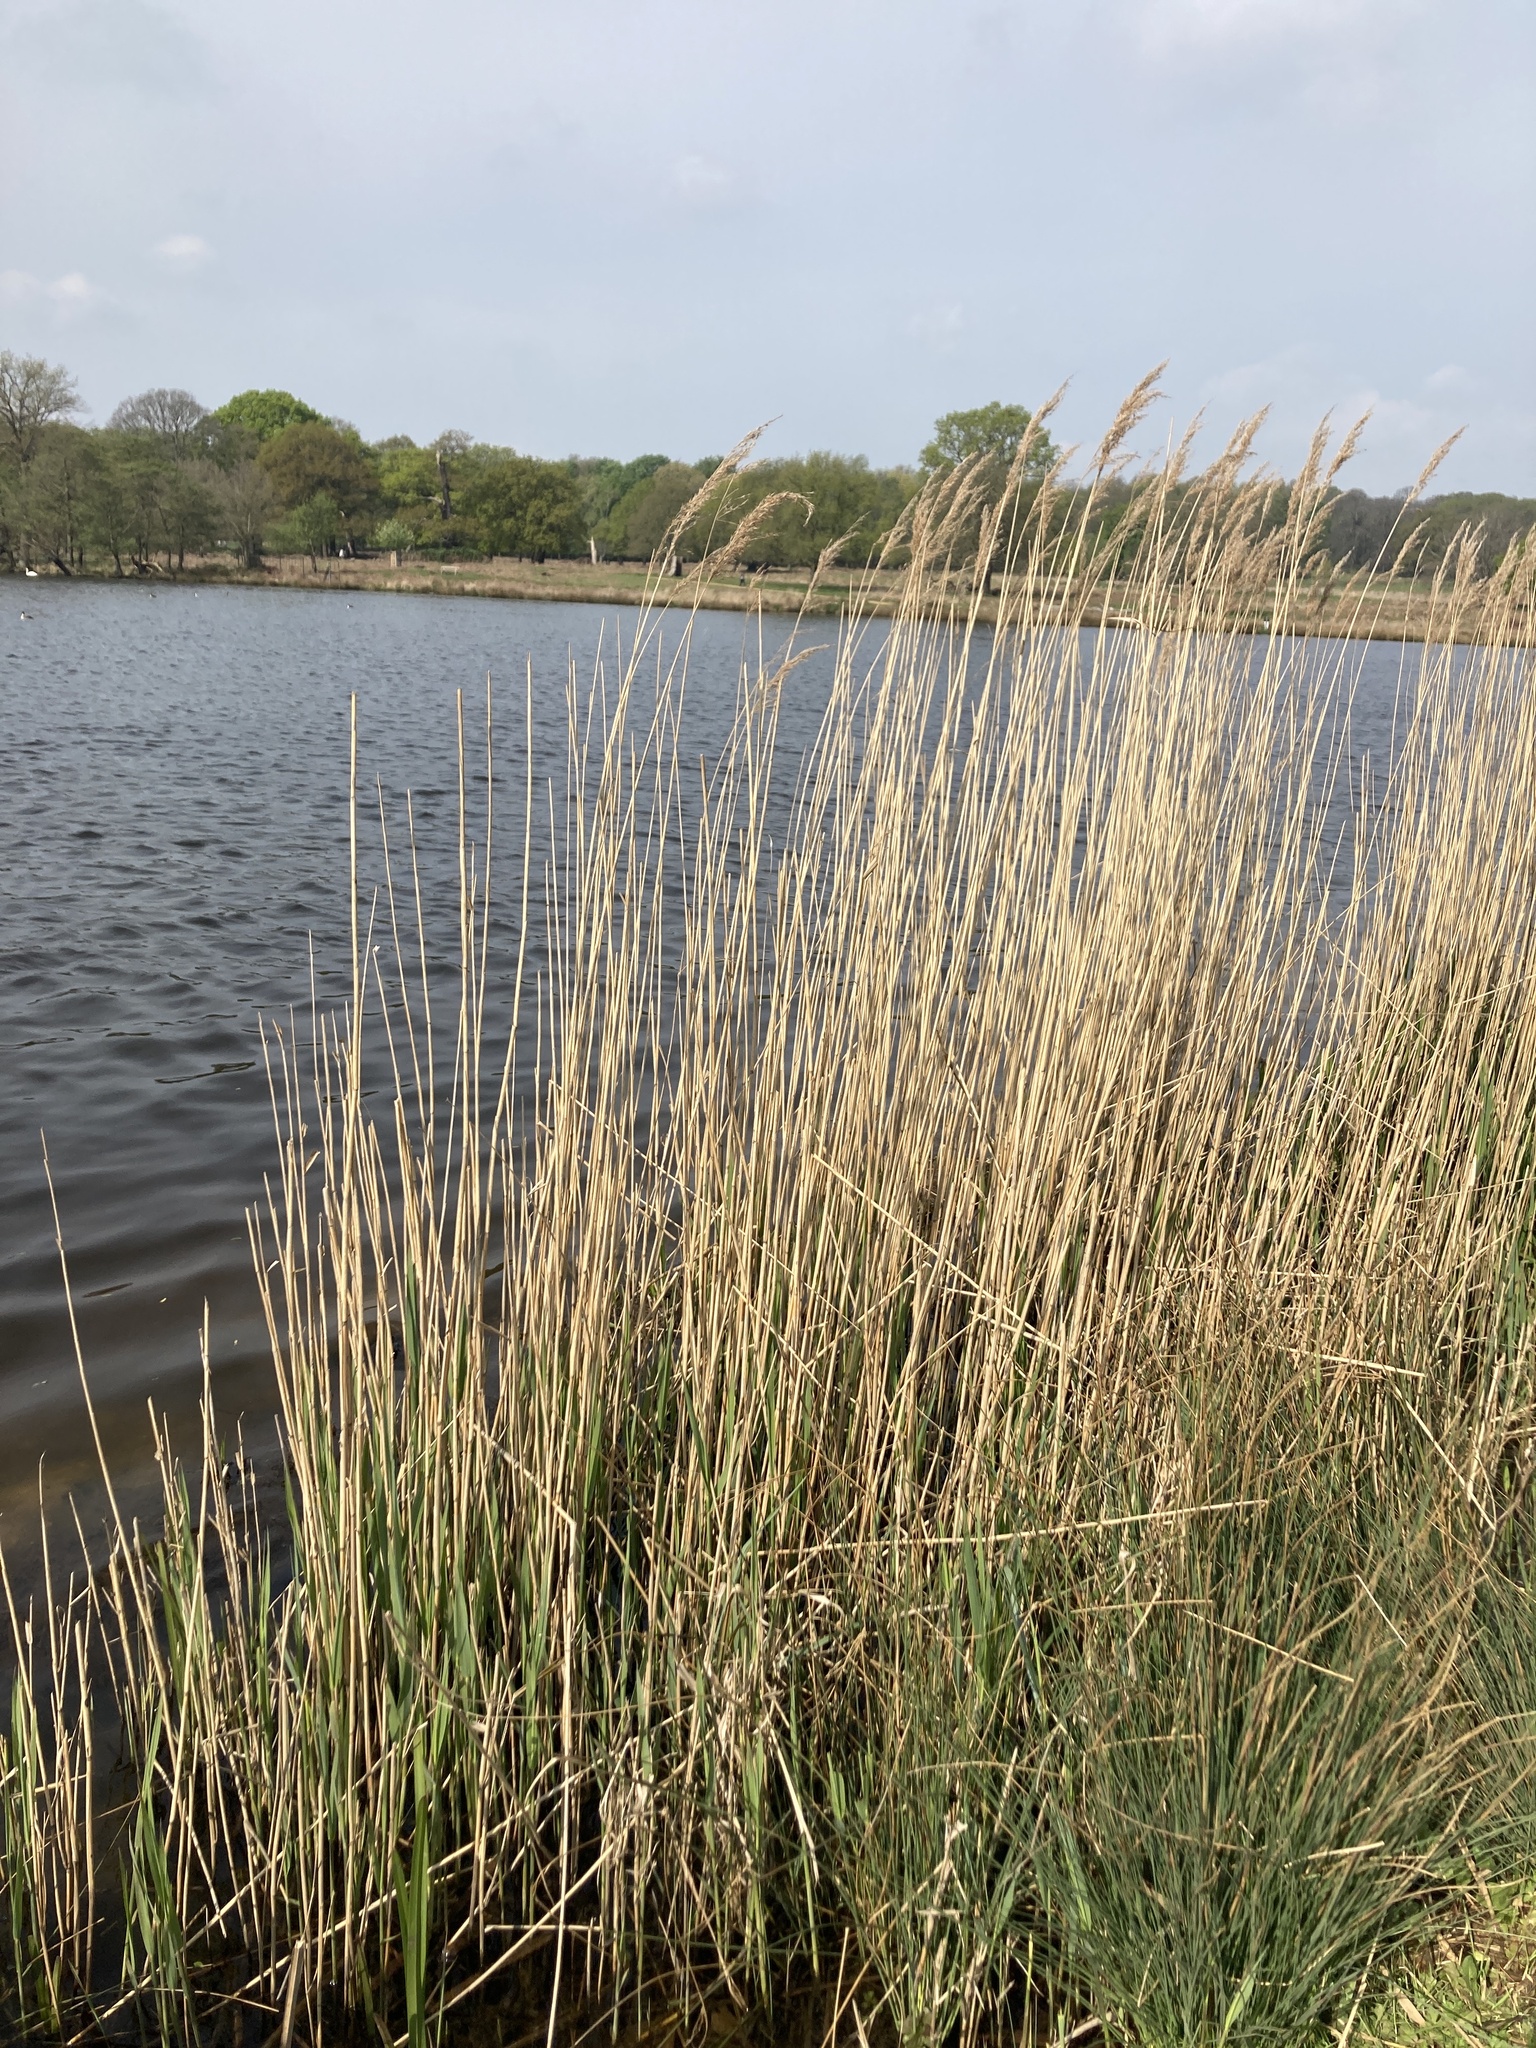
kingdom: Plantae
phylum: Tracheophyta
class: Liliopsida
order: Poales
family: Poaceae
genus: Phragmites
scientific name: Phragmites australis
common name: Common reed
